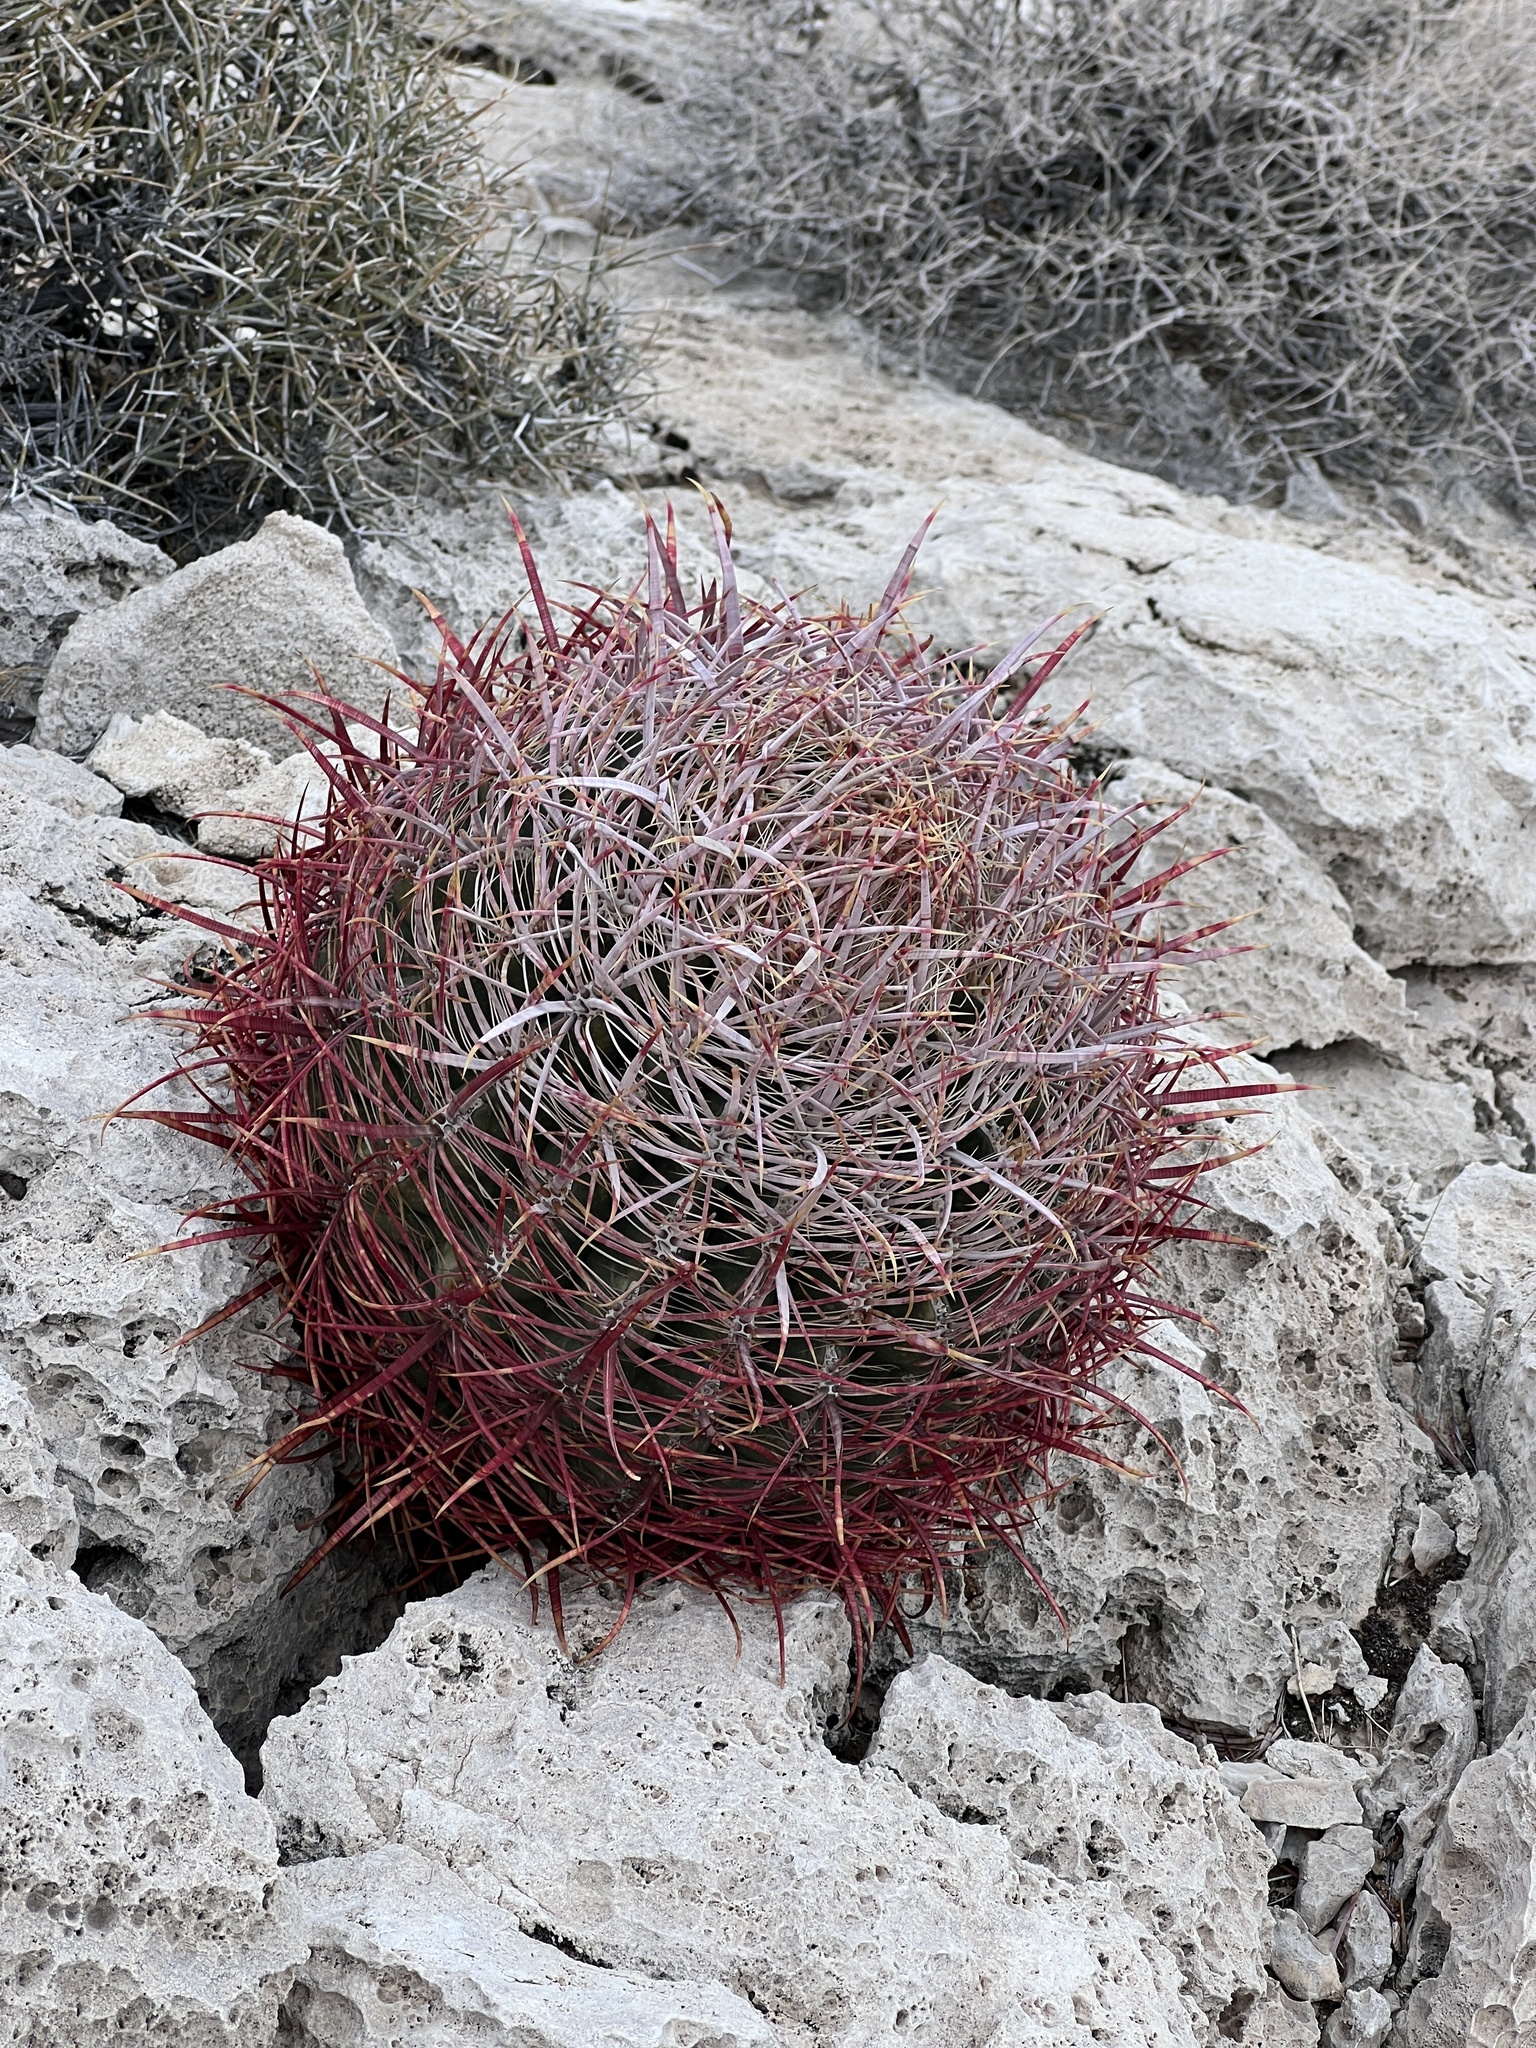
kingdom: Plantae
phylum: Tracheophyta
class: Magnoliopsida
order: Caryophyllales
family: Cactaceae
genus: Ferocactus
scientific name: Ferocactus cylindraceus
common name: California barrel cactus
